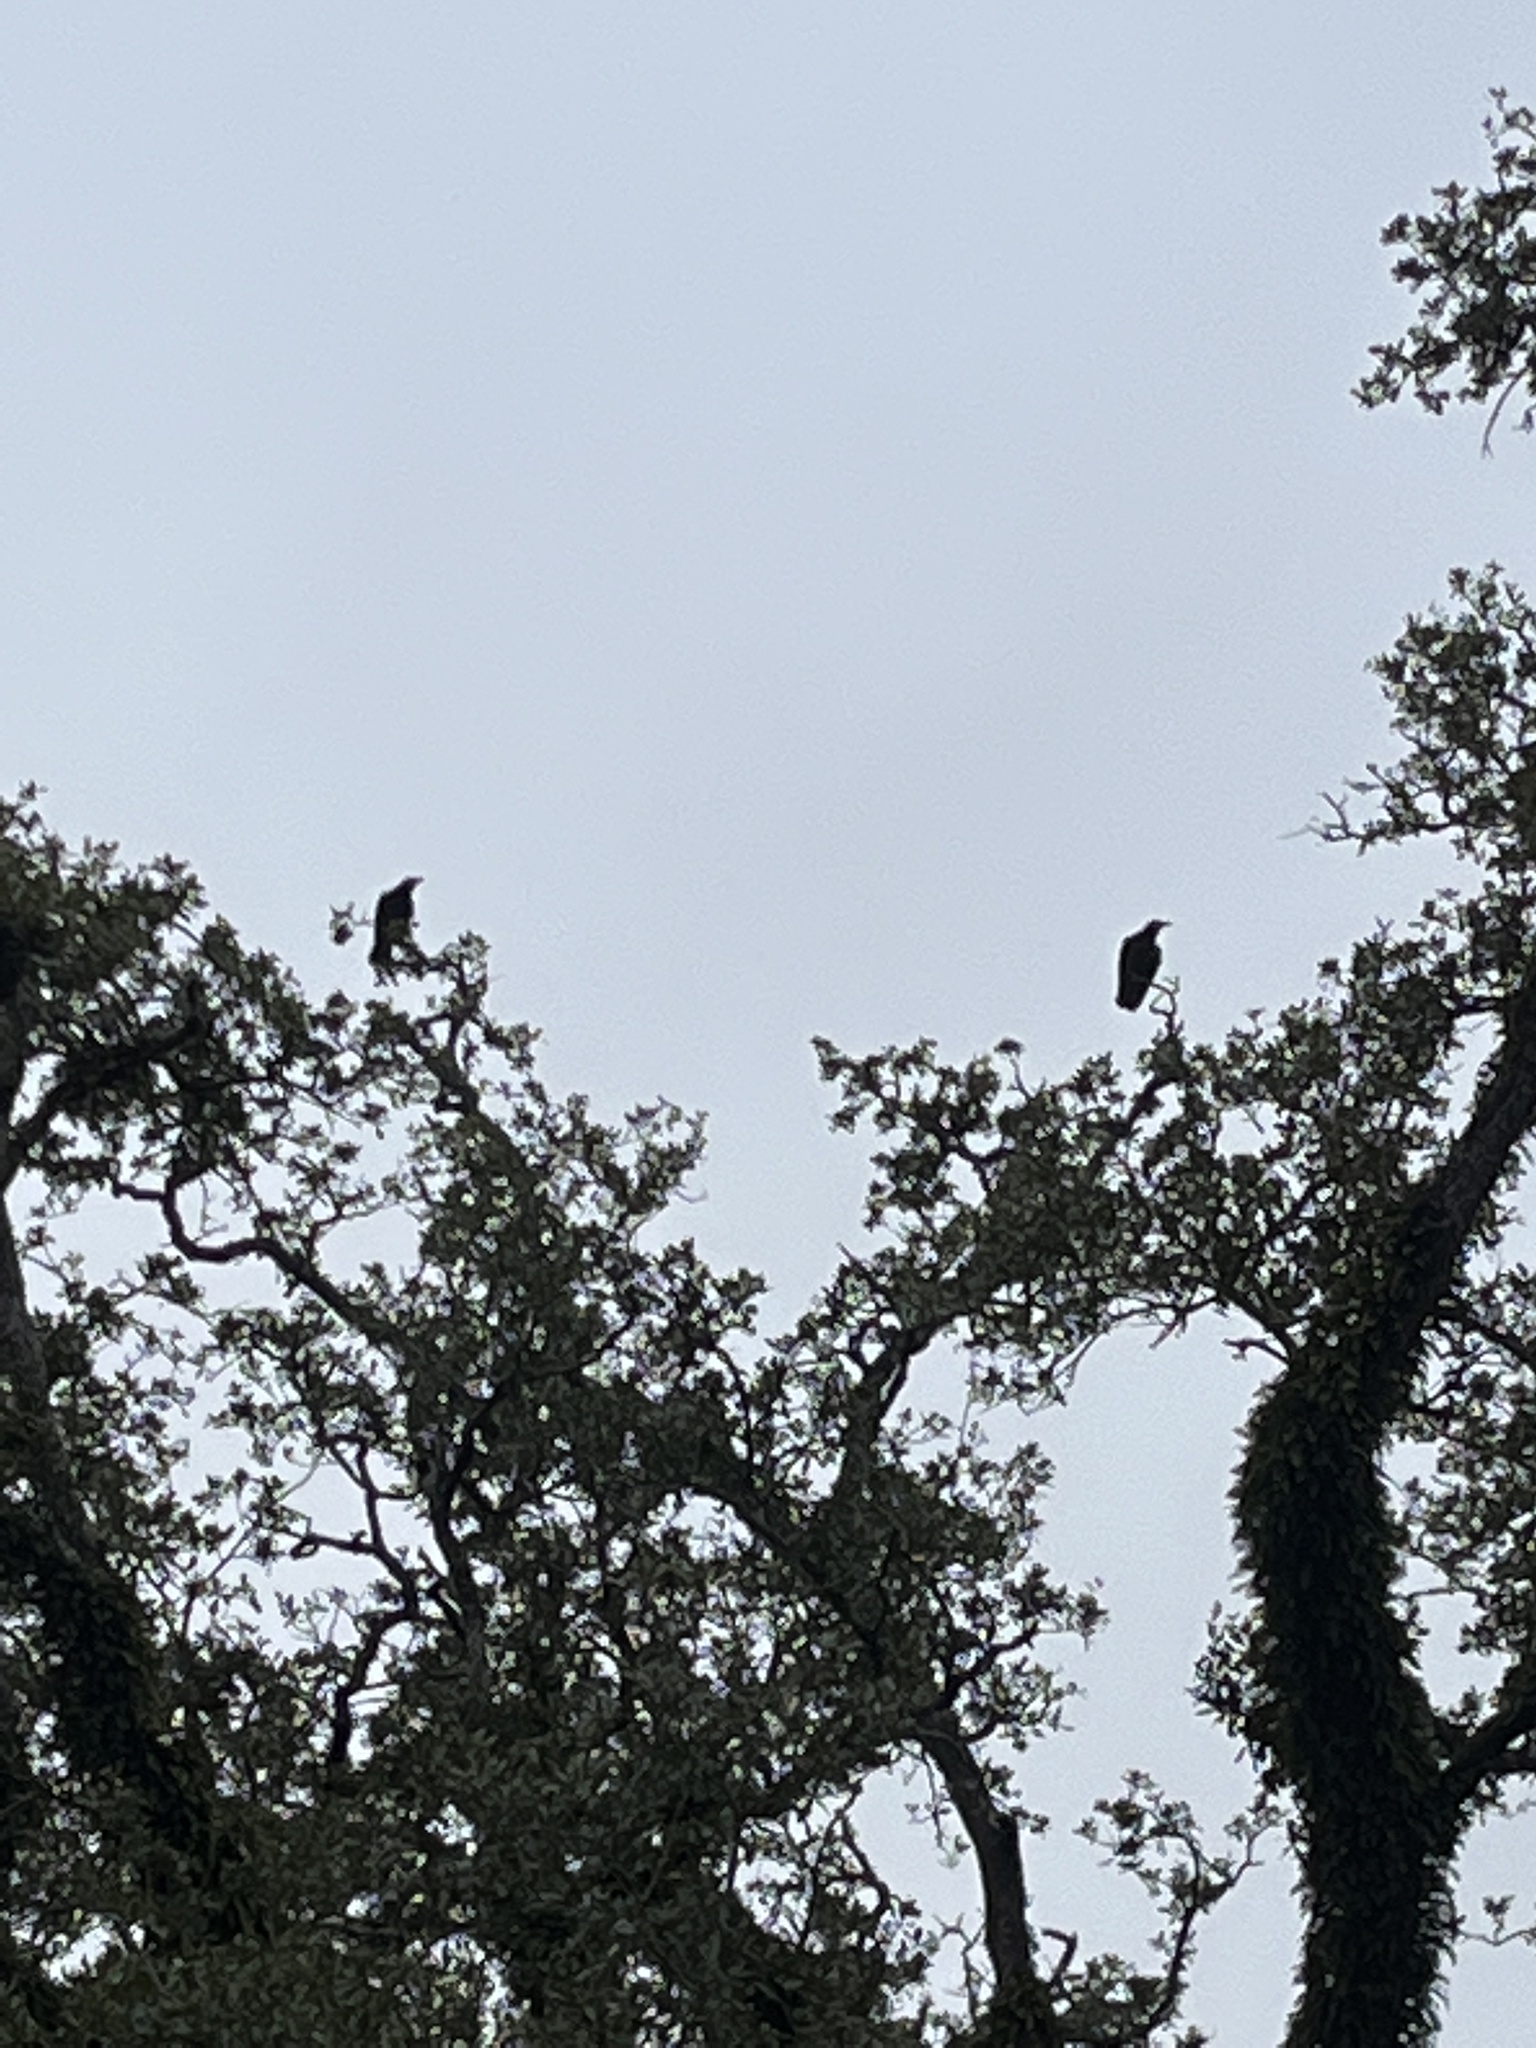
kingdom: Animalia
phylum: Chordata
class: Aves
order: Passeriformes
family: Corvidae
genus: Corvus
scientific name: Corvus brachyrhynchos
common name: American crow
